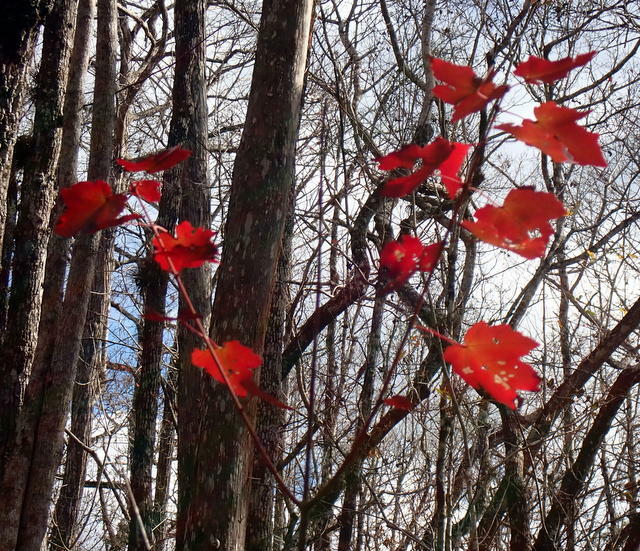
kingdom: Plantae
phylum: Tracheophyta
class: Magnoliopsida
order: Sapindales
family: Sapindaceae
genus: Acer
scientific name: Acer rubrum
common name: Red maple
